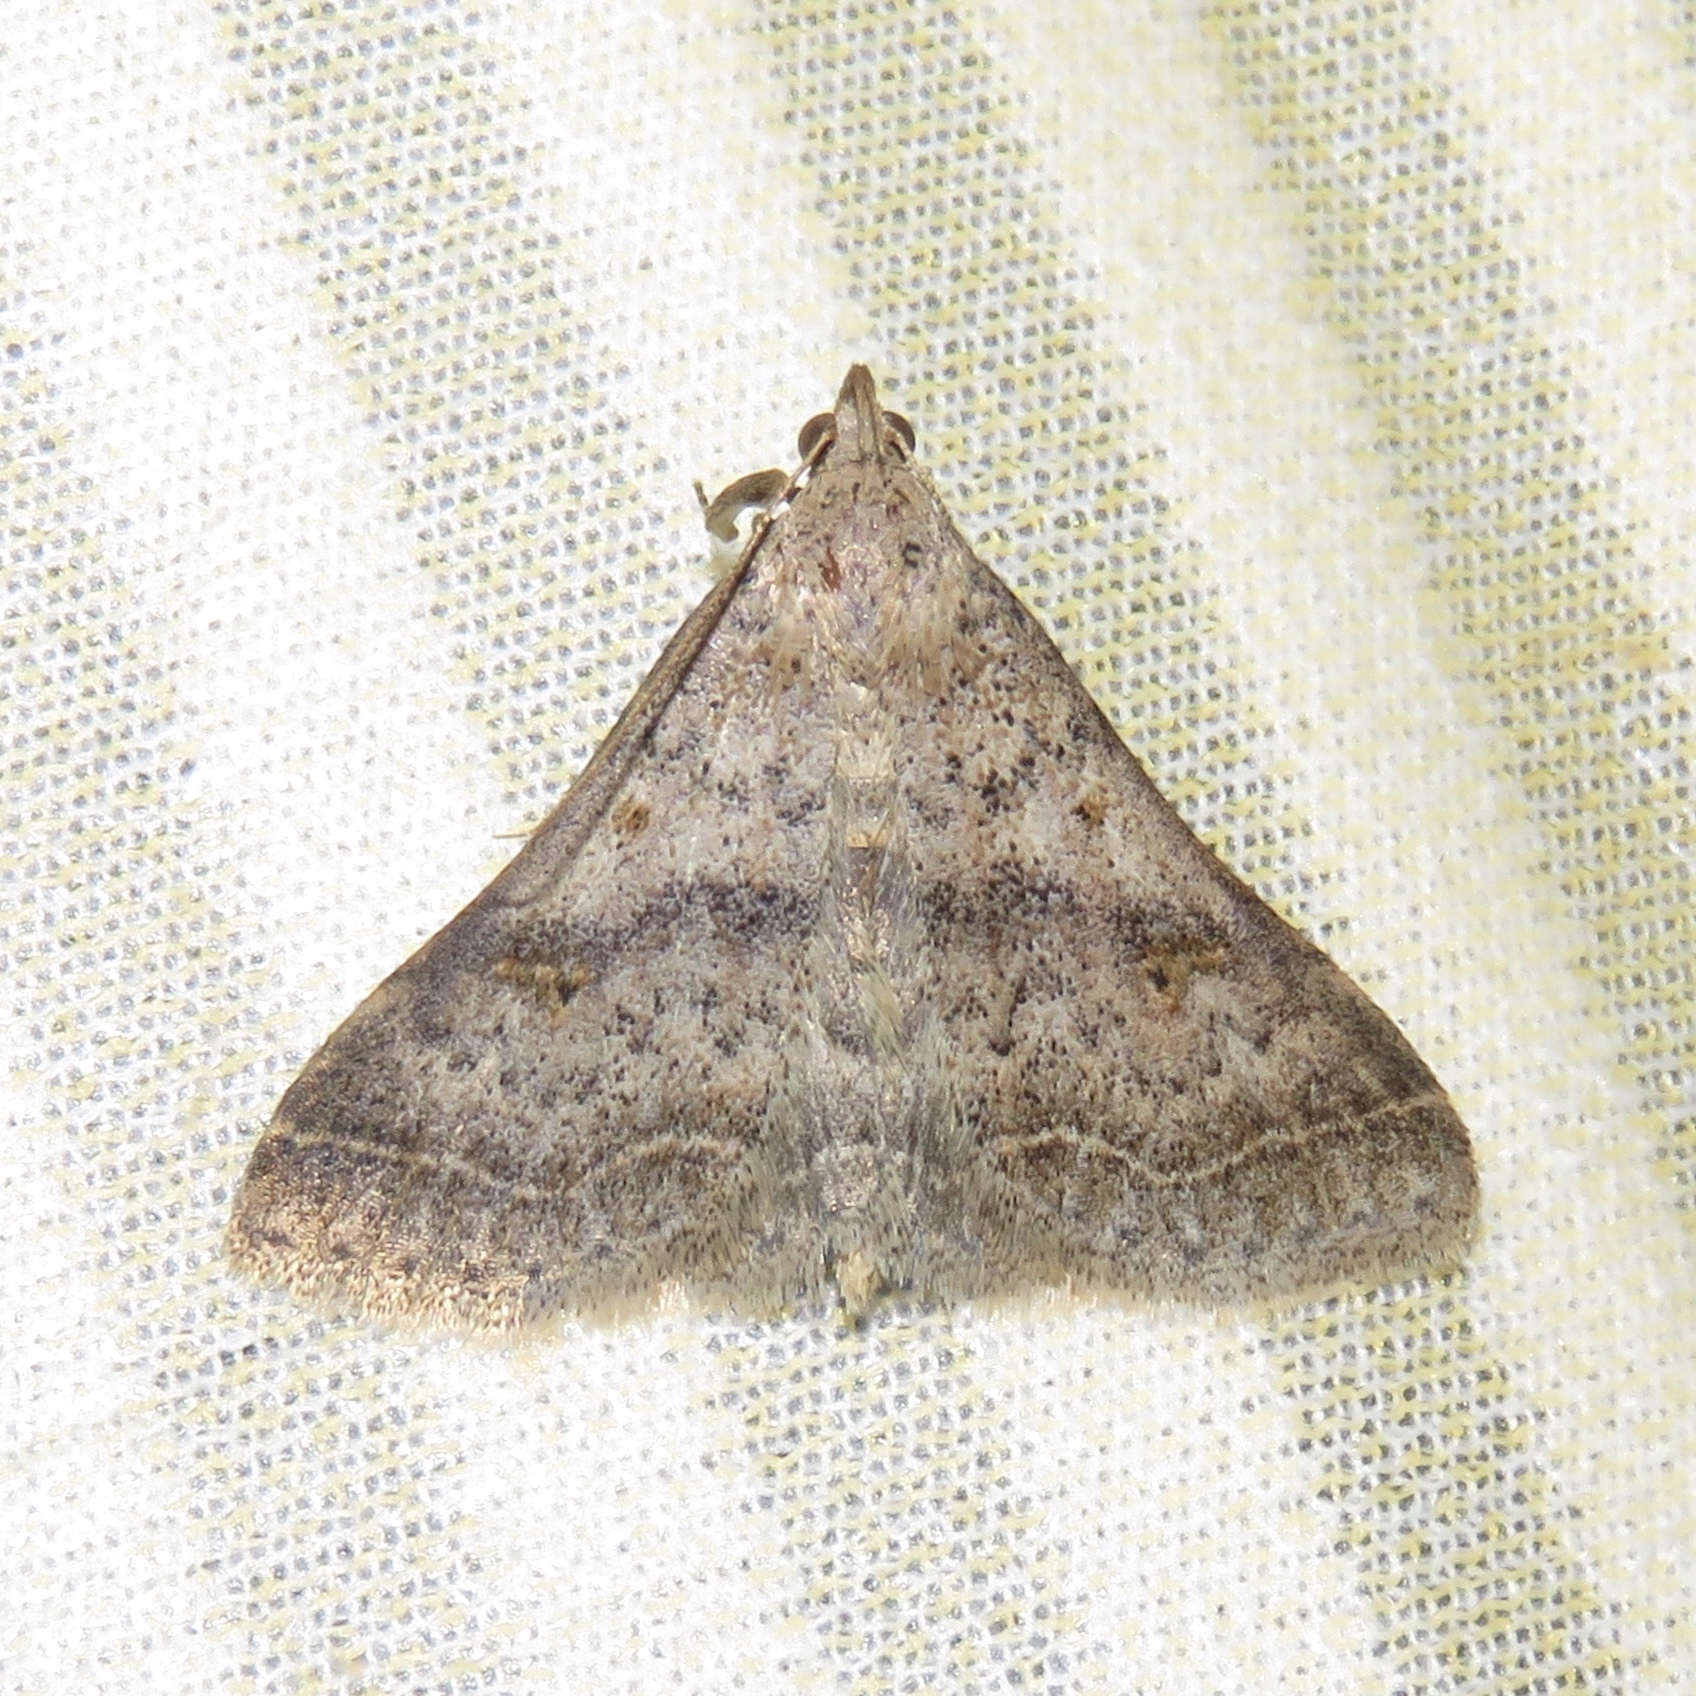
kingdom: Animalia
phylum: Arthropoda
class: Insecta
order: Lepidoptera
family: Erebidae
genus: Bleptina
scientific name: Bleptina caradrinalis
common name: Bent-winged owlet
